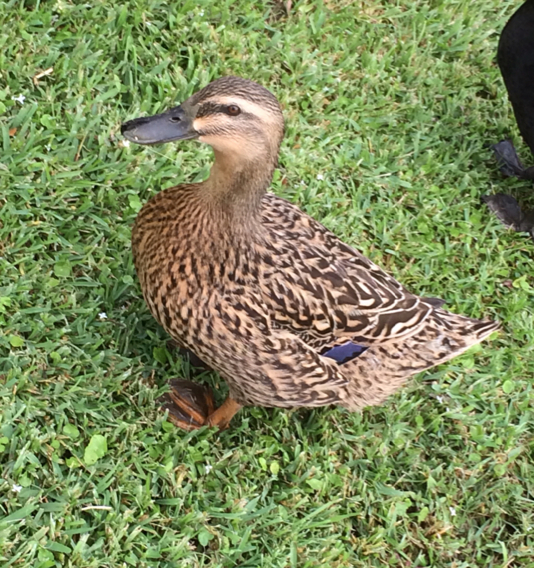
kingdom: Animalia
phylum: Chordata
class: Aves
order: Anseriformes
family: Anatidae
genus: Anas
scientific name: Anas platyrhynchos
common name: Mallard
